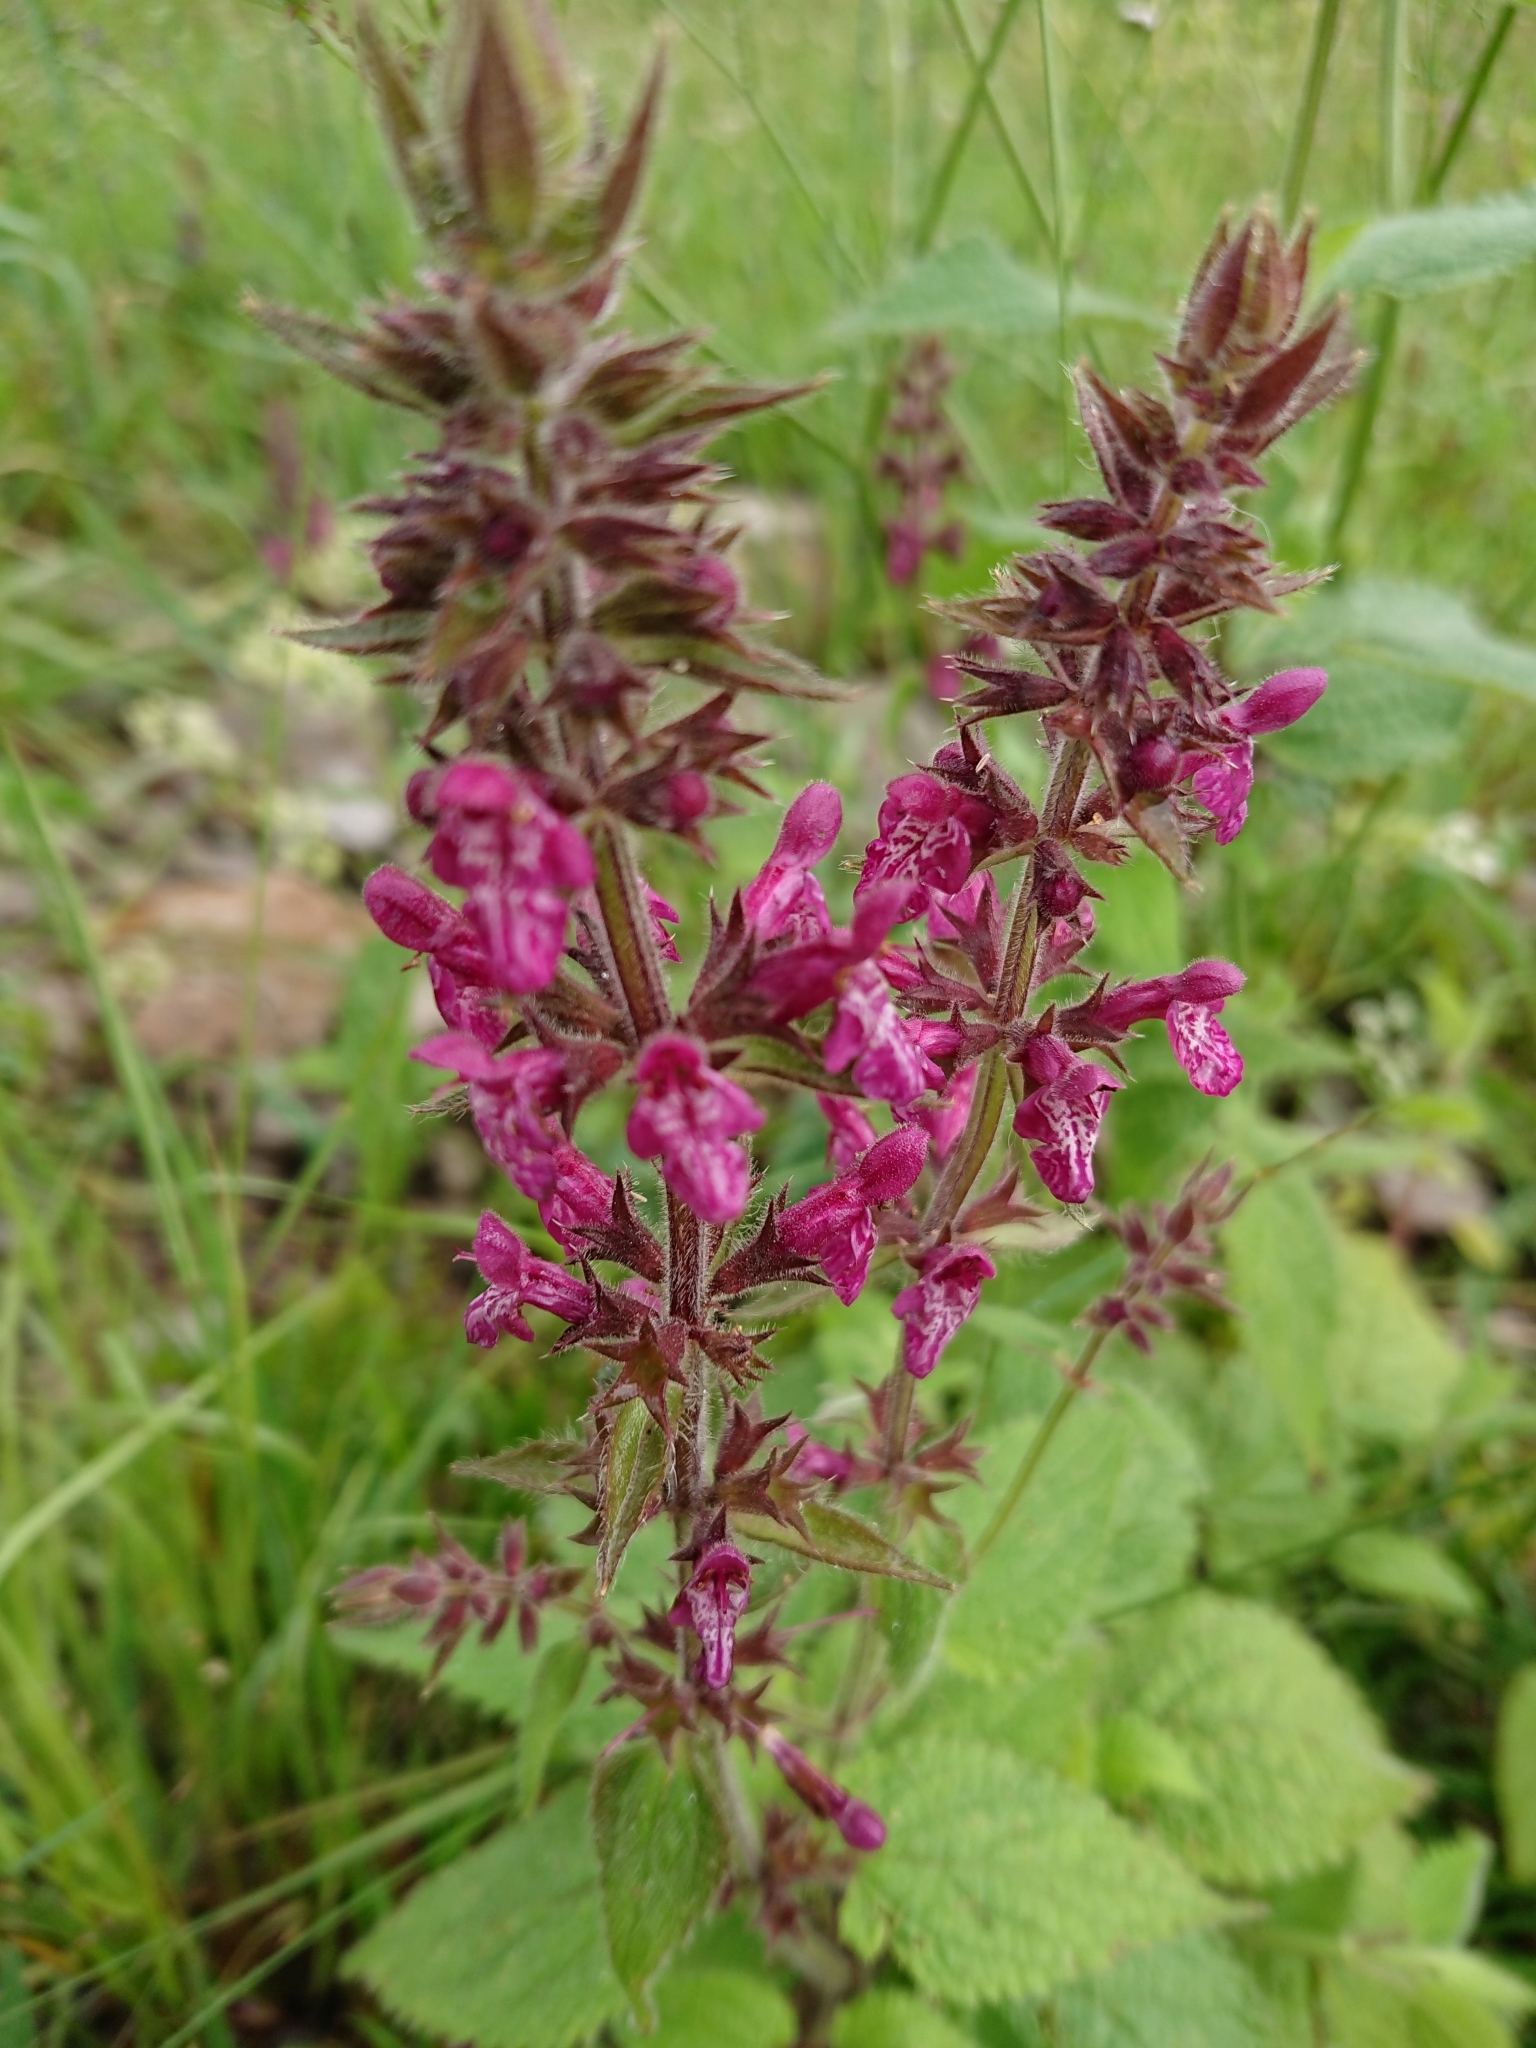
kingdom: Plantae
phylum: Tracheophyta
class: Magnoliopsida
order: Lamiales
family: Lamiaceae
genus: Stachys
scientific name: Stachys sylvatica
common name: Hedge woundwort
